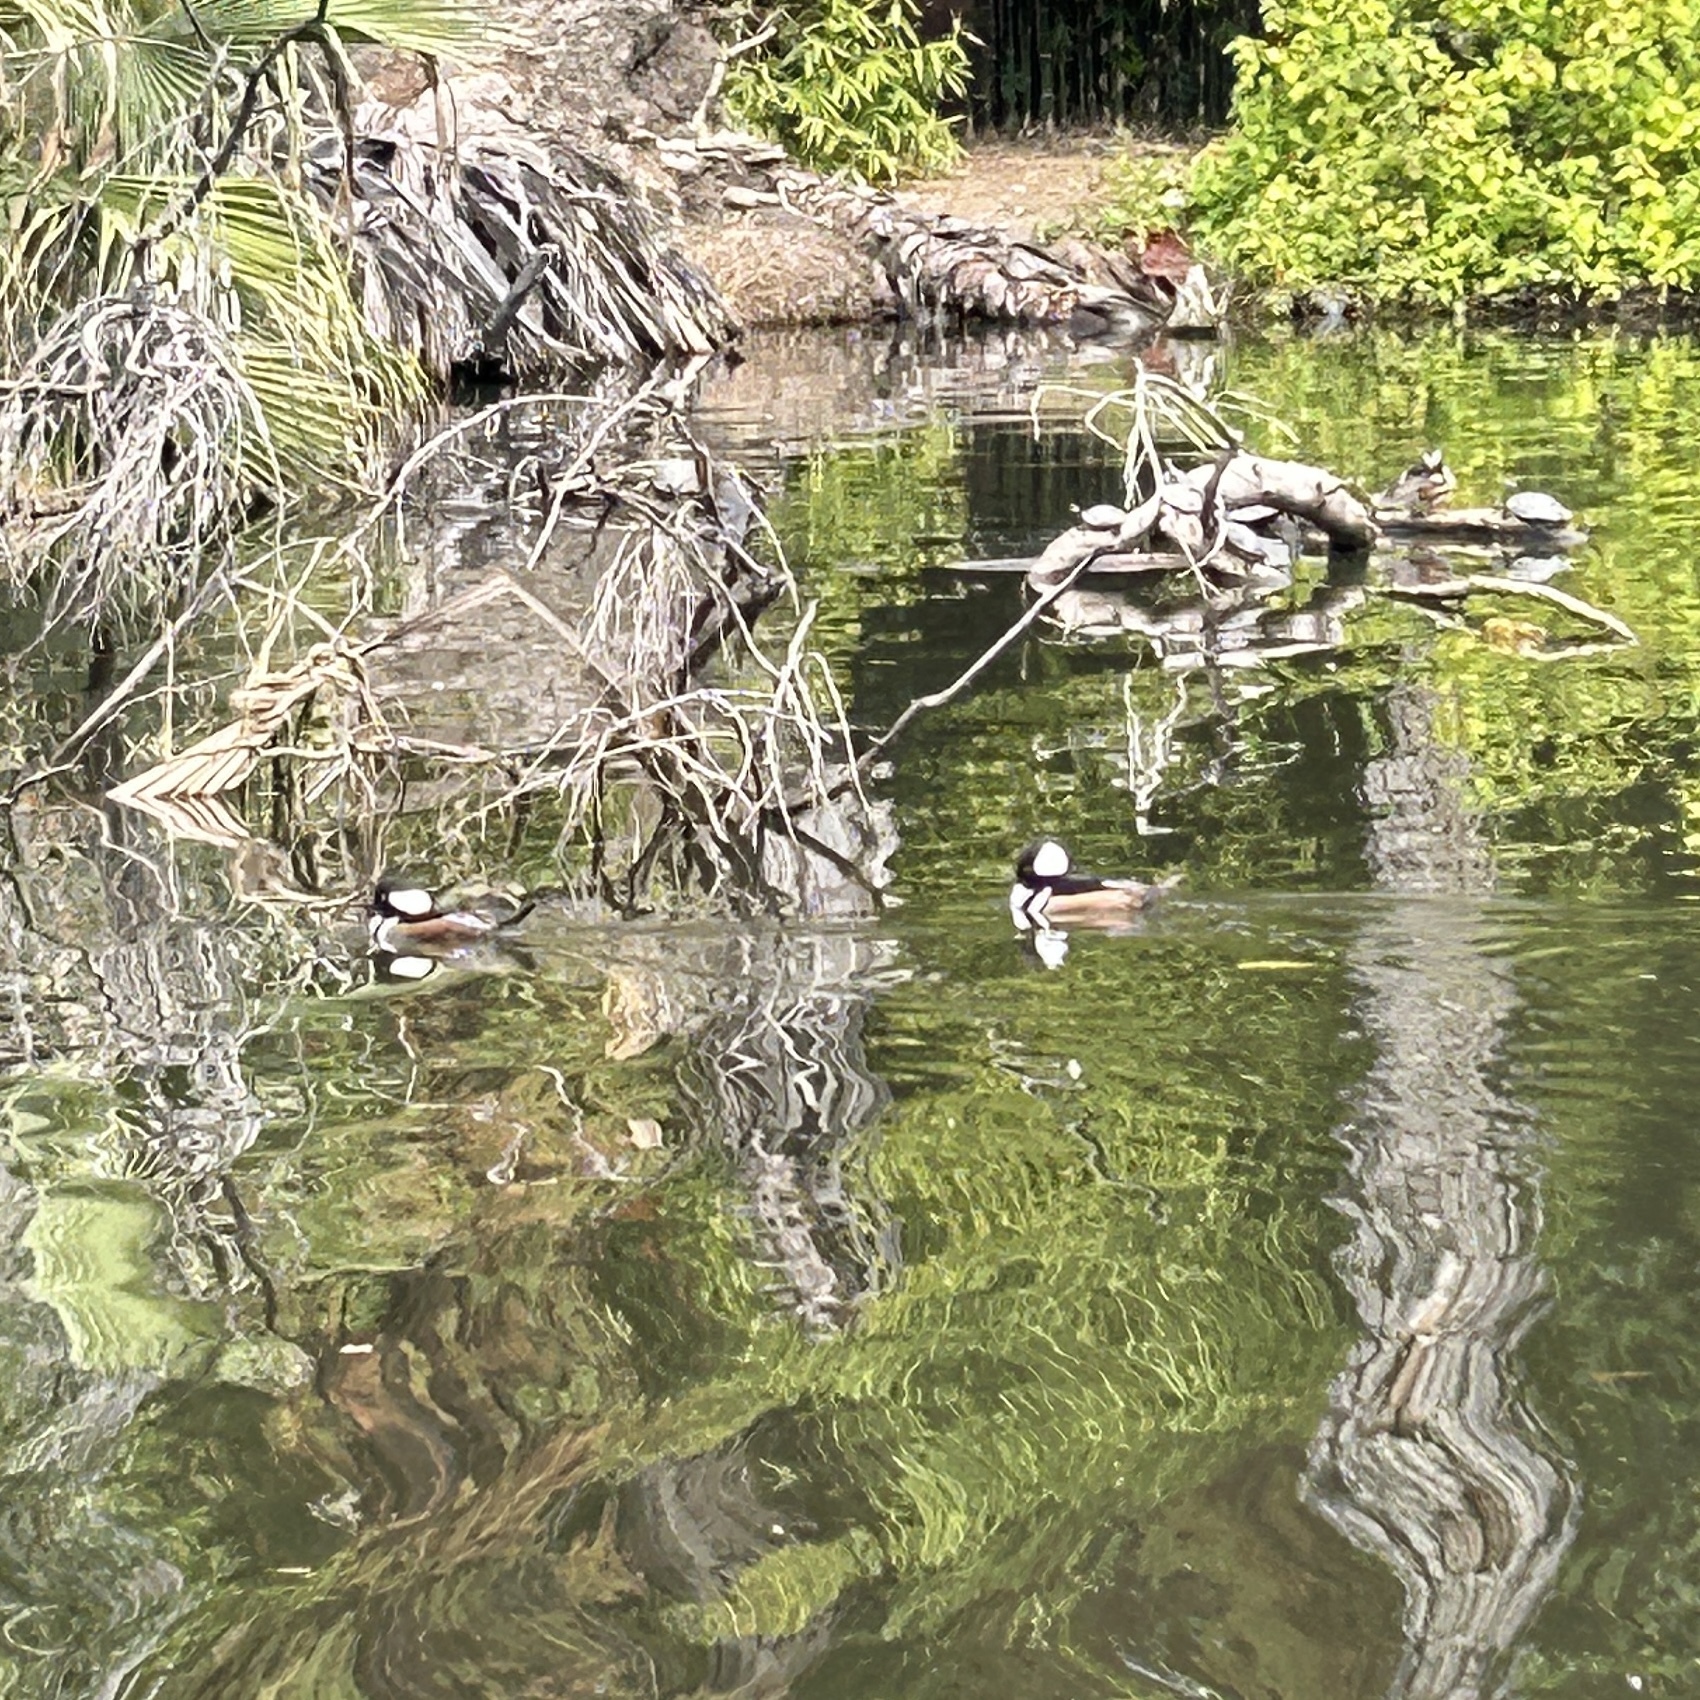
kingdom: Animalia
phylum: Chordata
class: Aves
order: Anseriformes
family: Anatidae
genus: Lophodytes
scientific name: Lophodytes cucullatus
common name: Hooded merganser
